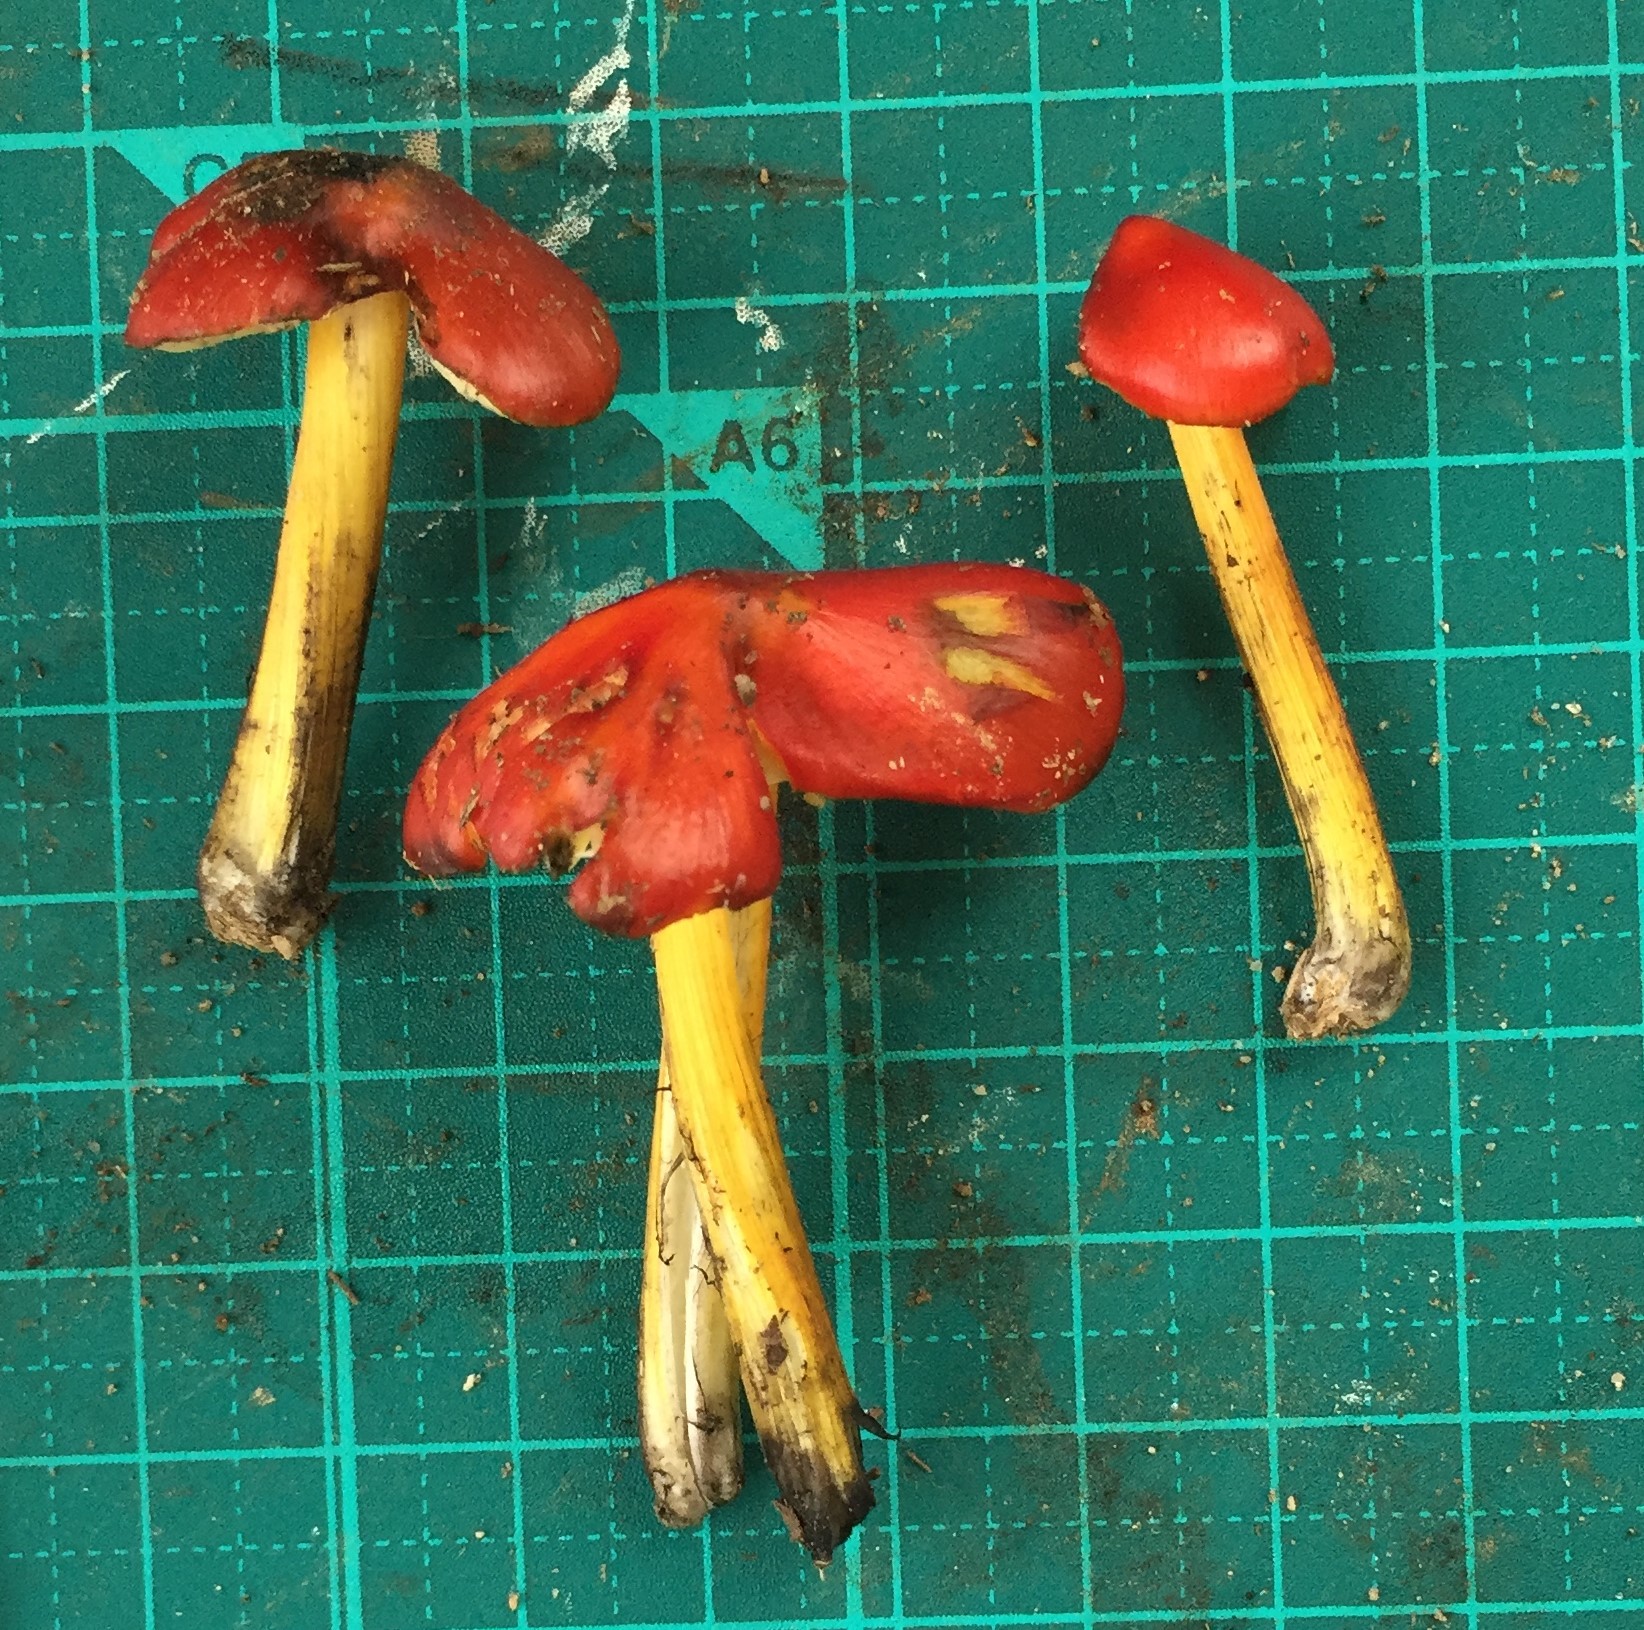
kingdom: Fungi
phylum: Basidiomycota
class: Agaricomycetes
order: Agaricales
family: Hygrophoraceae
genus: Hygrocybe
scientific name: Hygrocybe conica
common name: Blackening wax-cap
